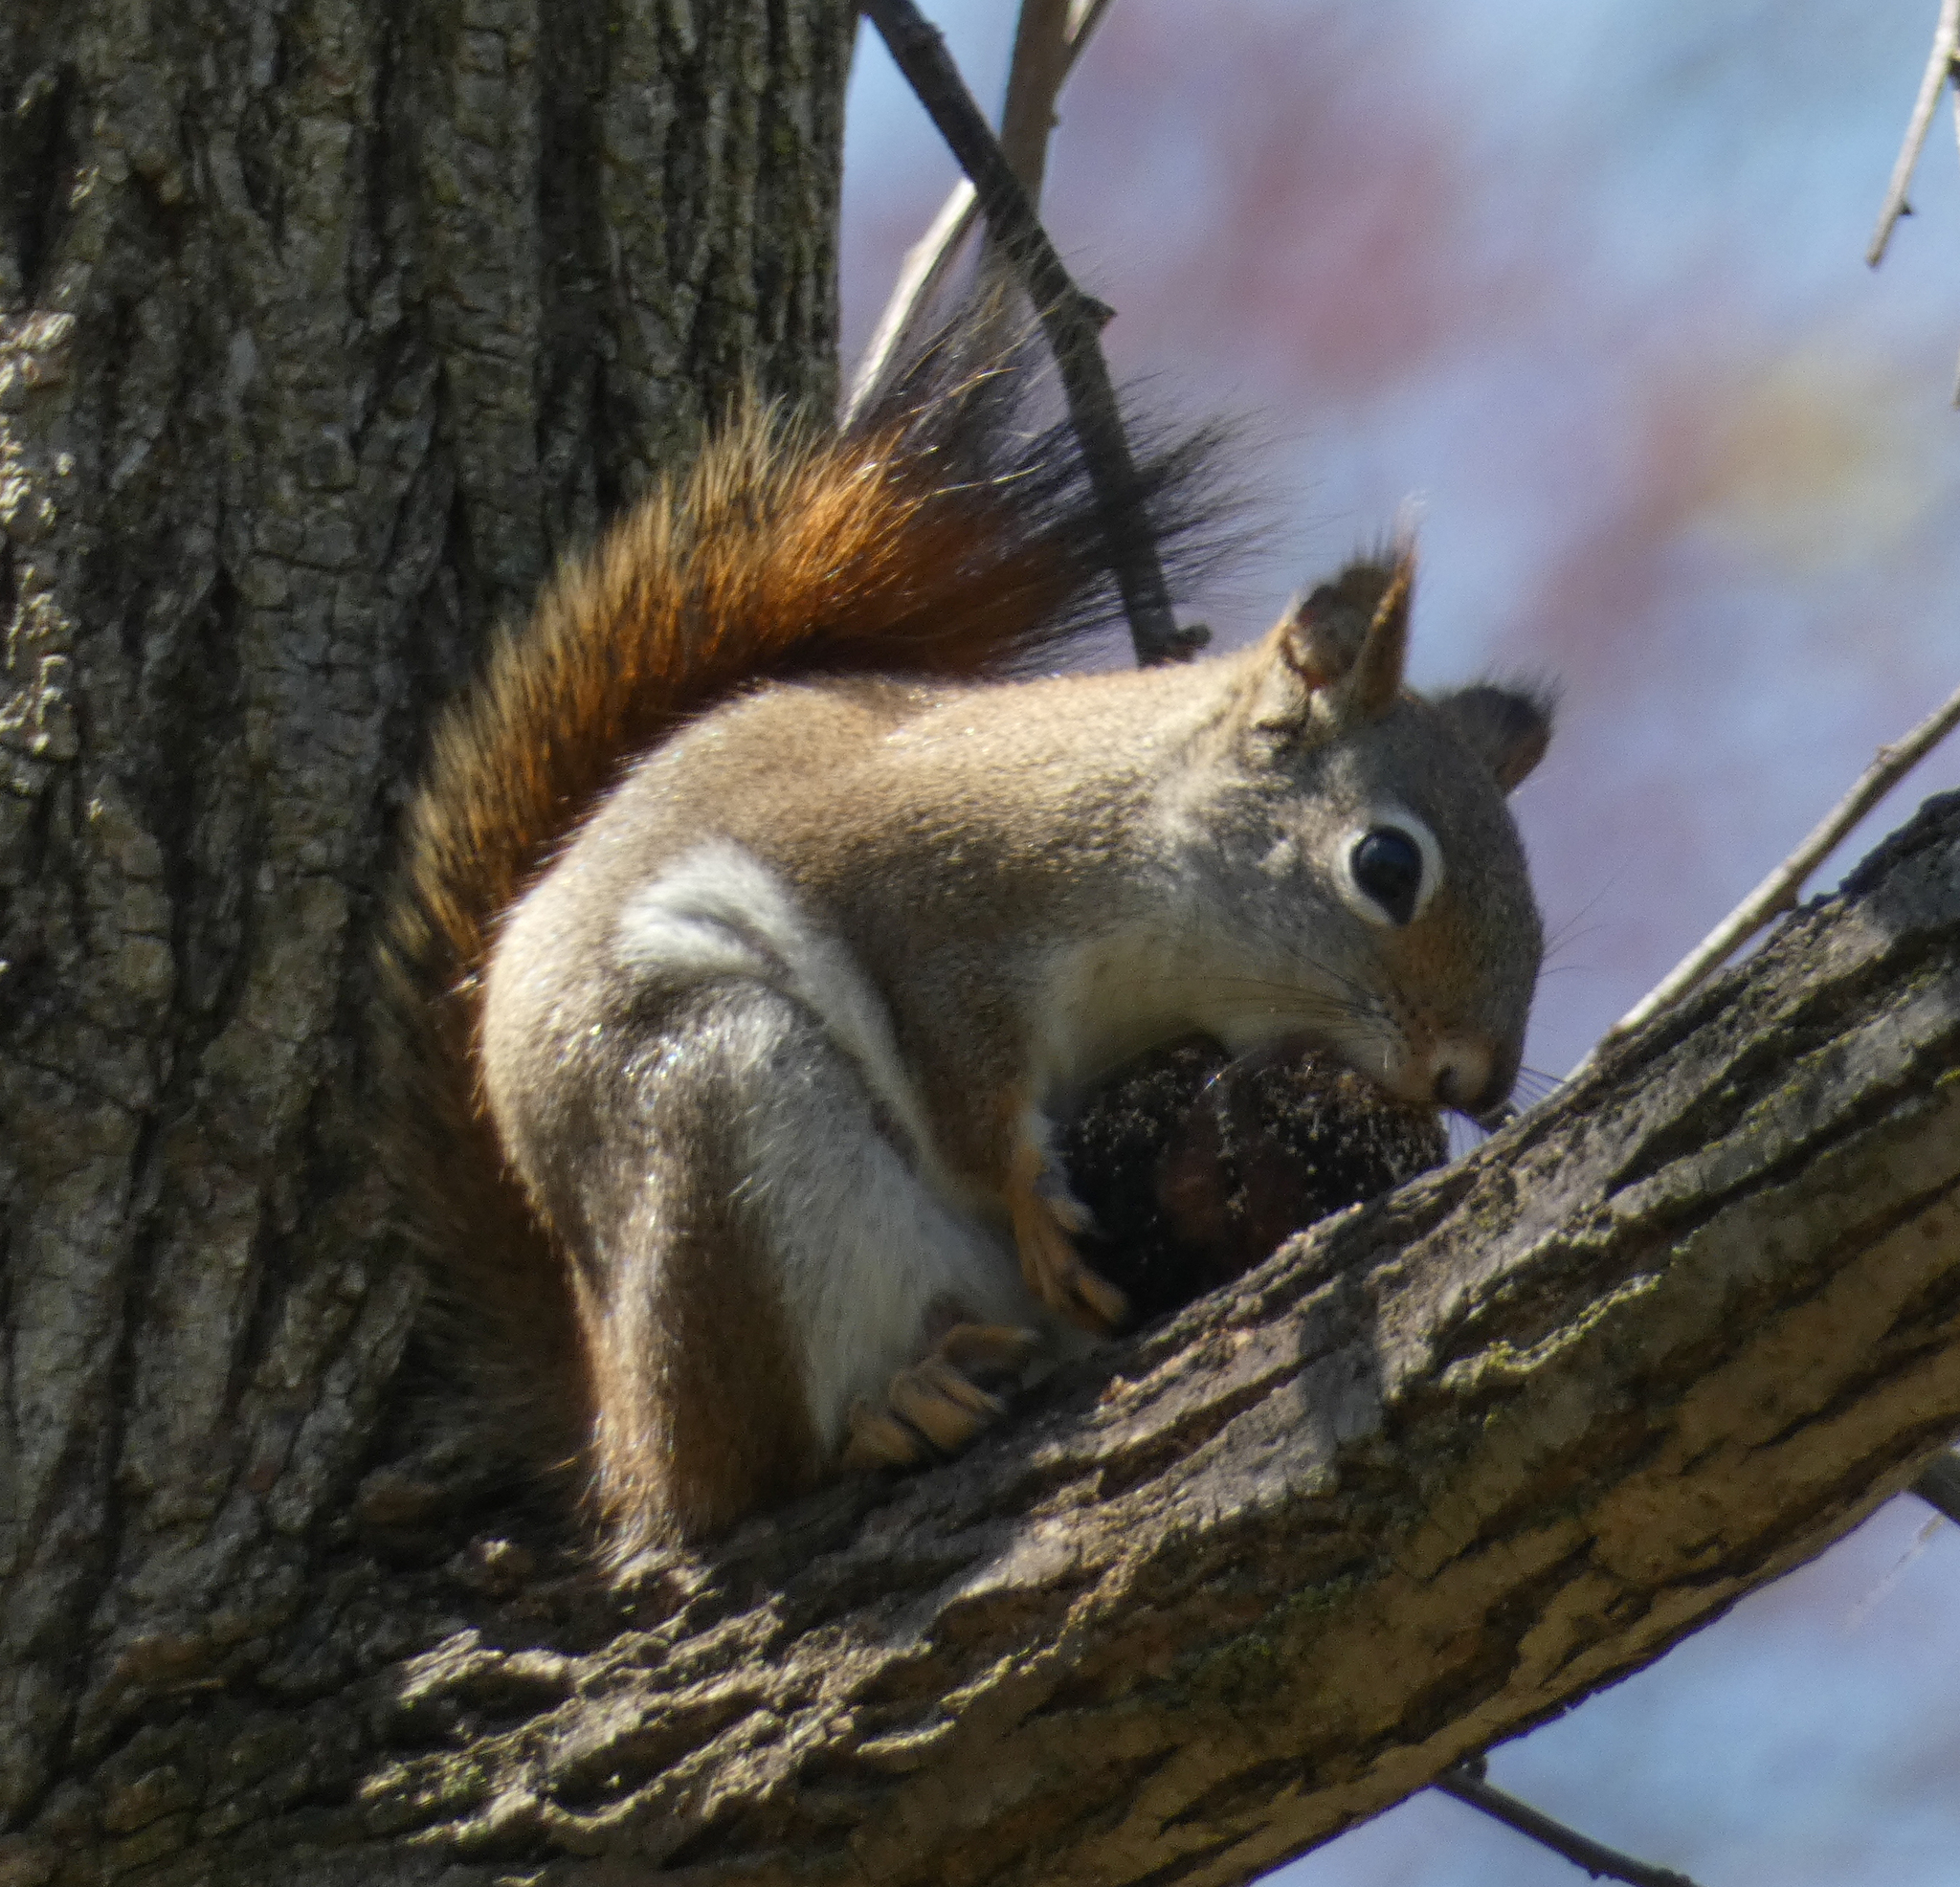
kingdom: Animalia
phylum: Chordata
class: Mammalia
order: Rodentia
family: Sciuridae
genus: Tamiasciurus
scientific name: Tamiasciurus hudsonicus
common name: Red squirrel
